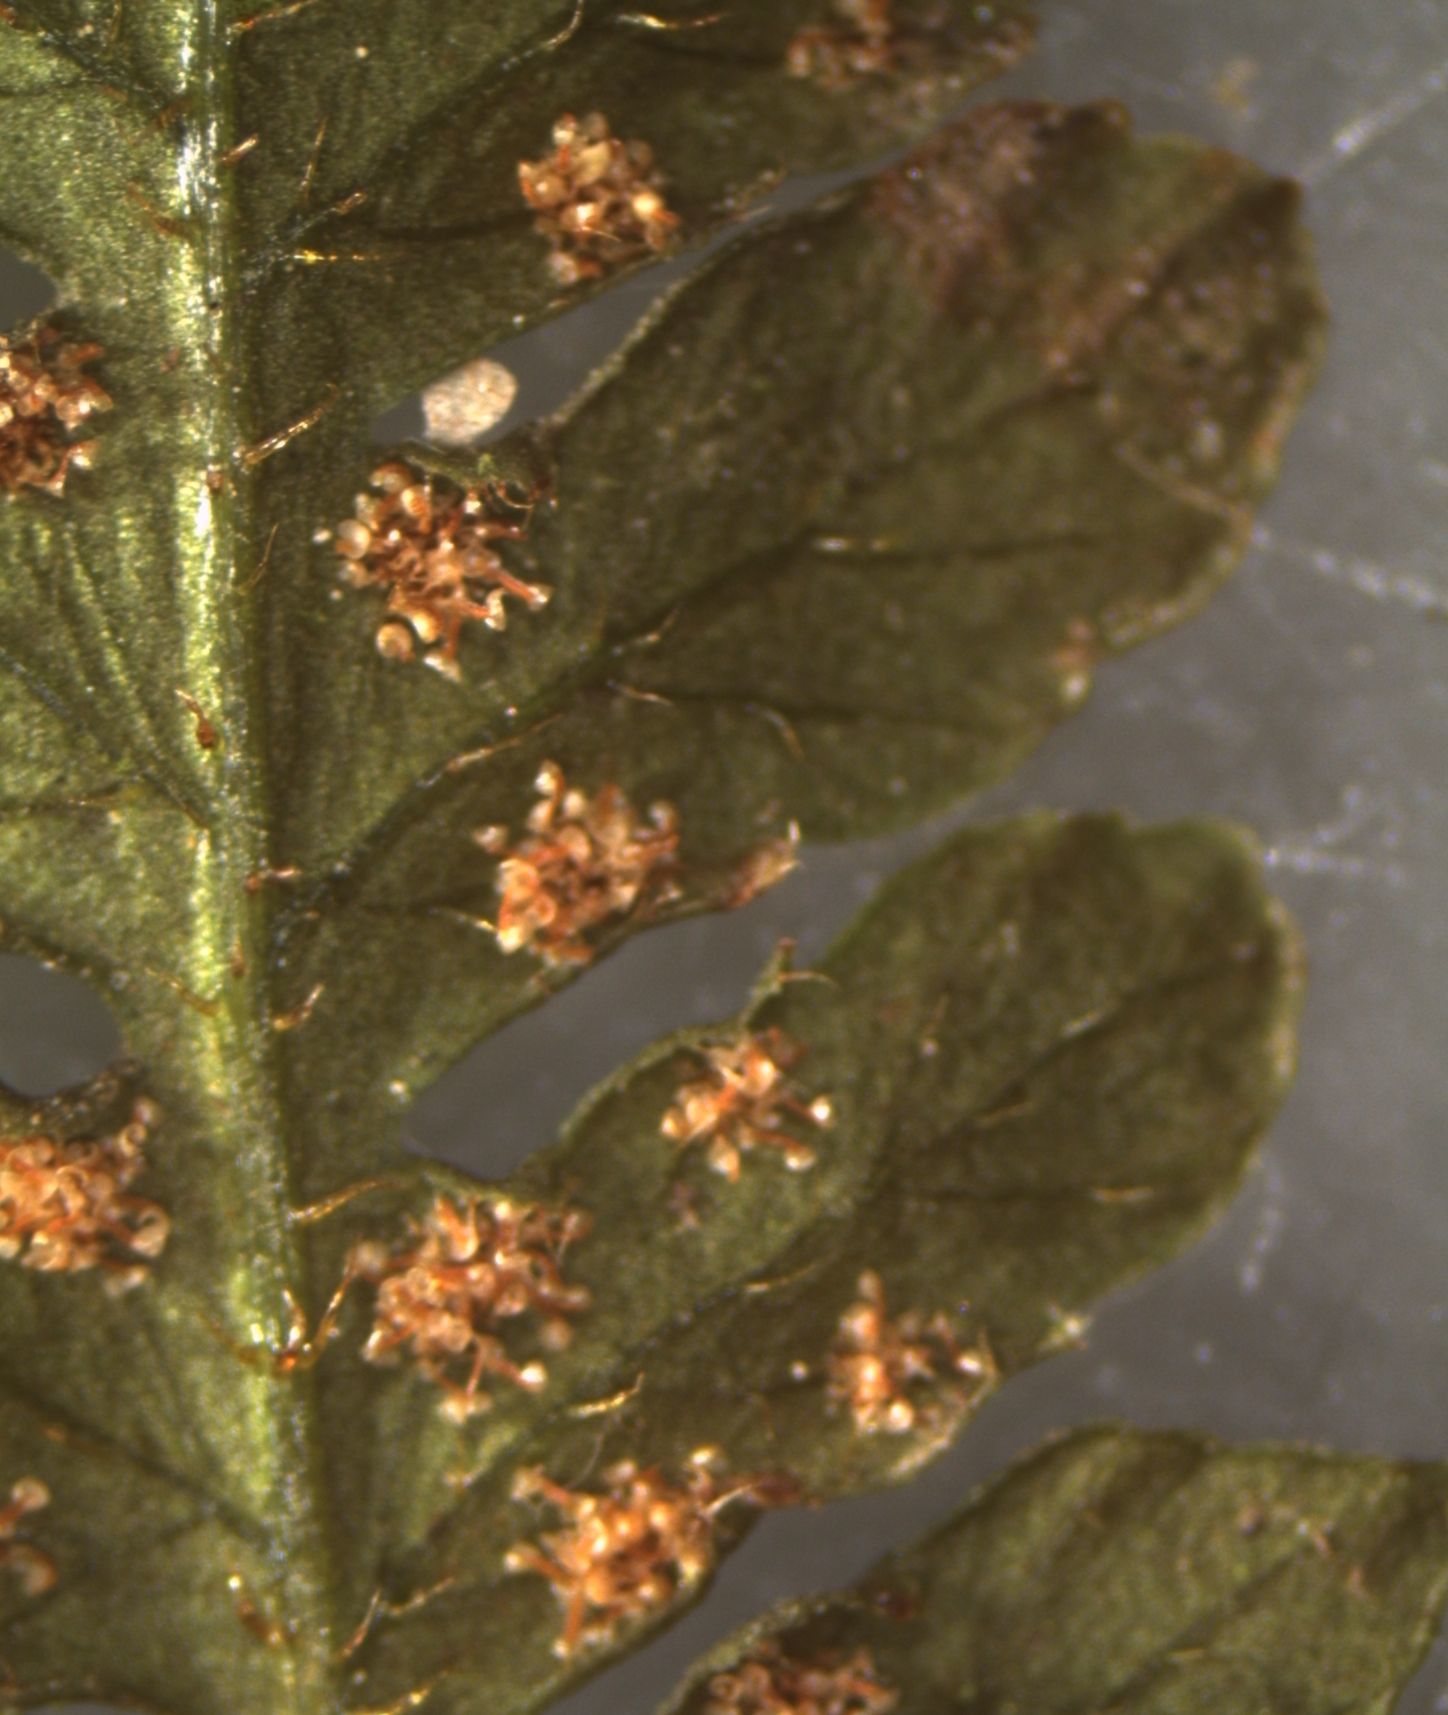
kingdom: Plantae
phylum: Tracheophyta
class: Polypodiopsida
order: Polypodiales
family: Dennstaedtiaceae
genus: Hypolepis
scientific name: Hypolepis ambigua
